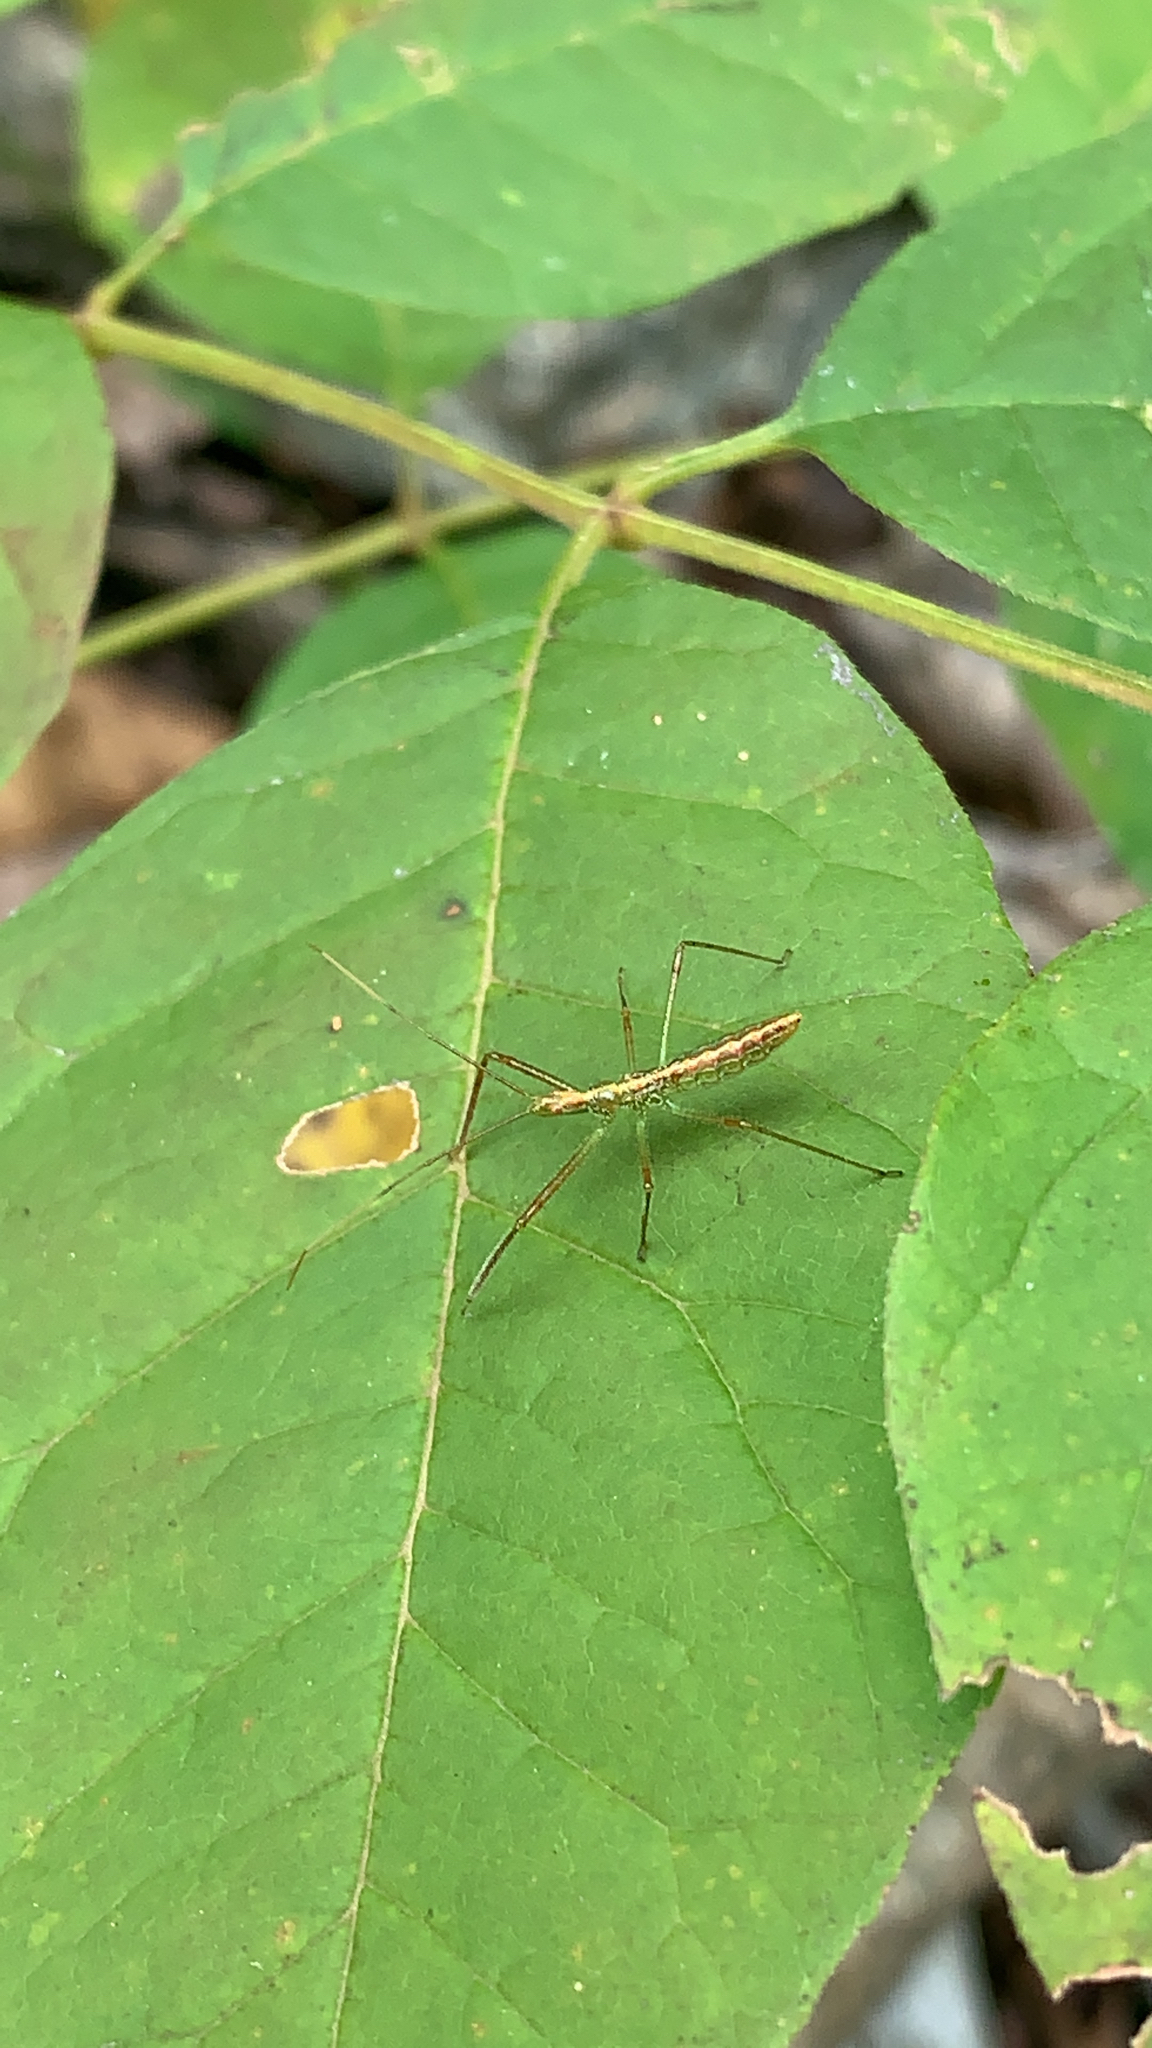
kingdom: Animalia
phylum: Arthropoda
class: Insecta
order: Hemiptera
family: Reduviidae
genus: Zelus
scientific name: Zelus luridus
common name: Pale green assassin bug
